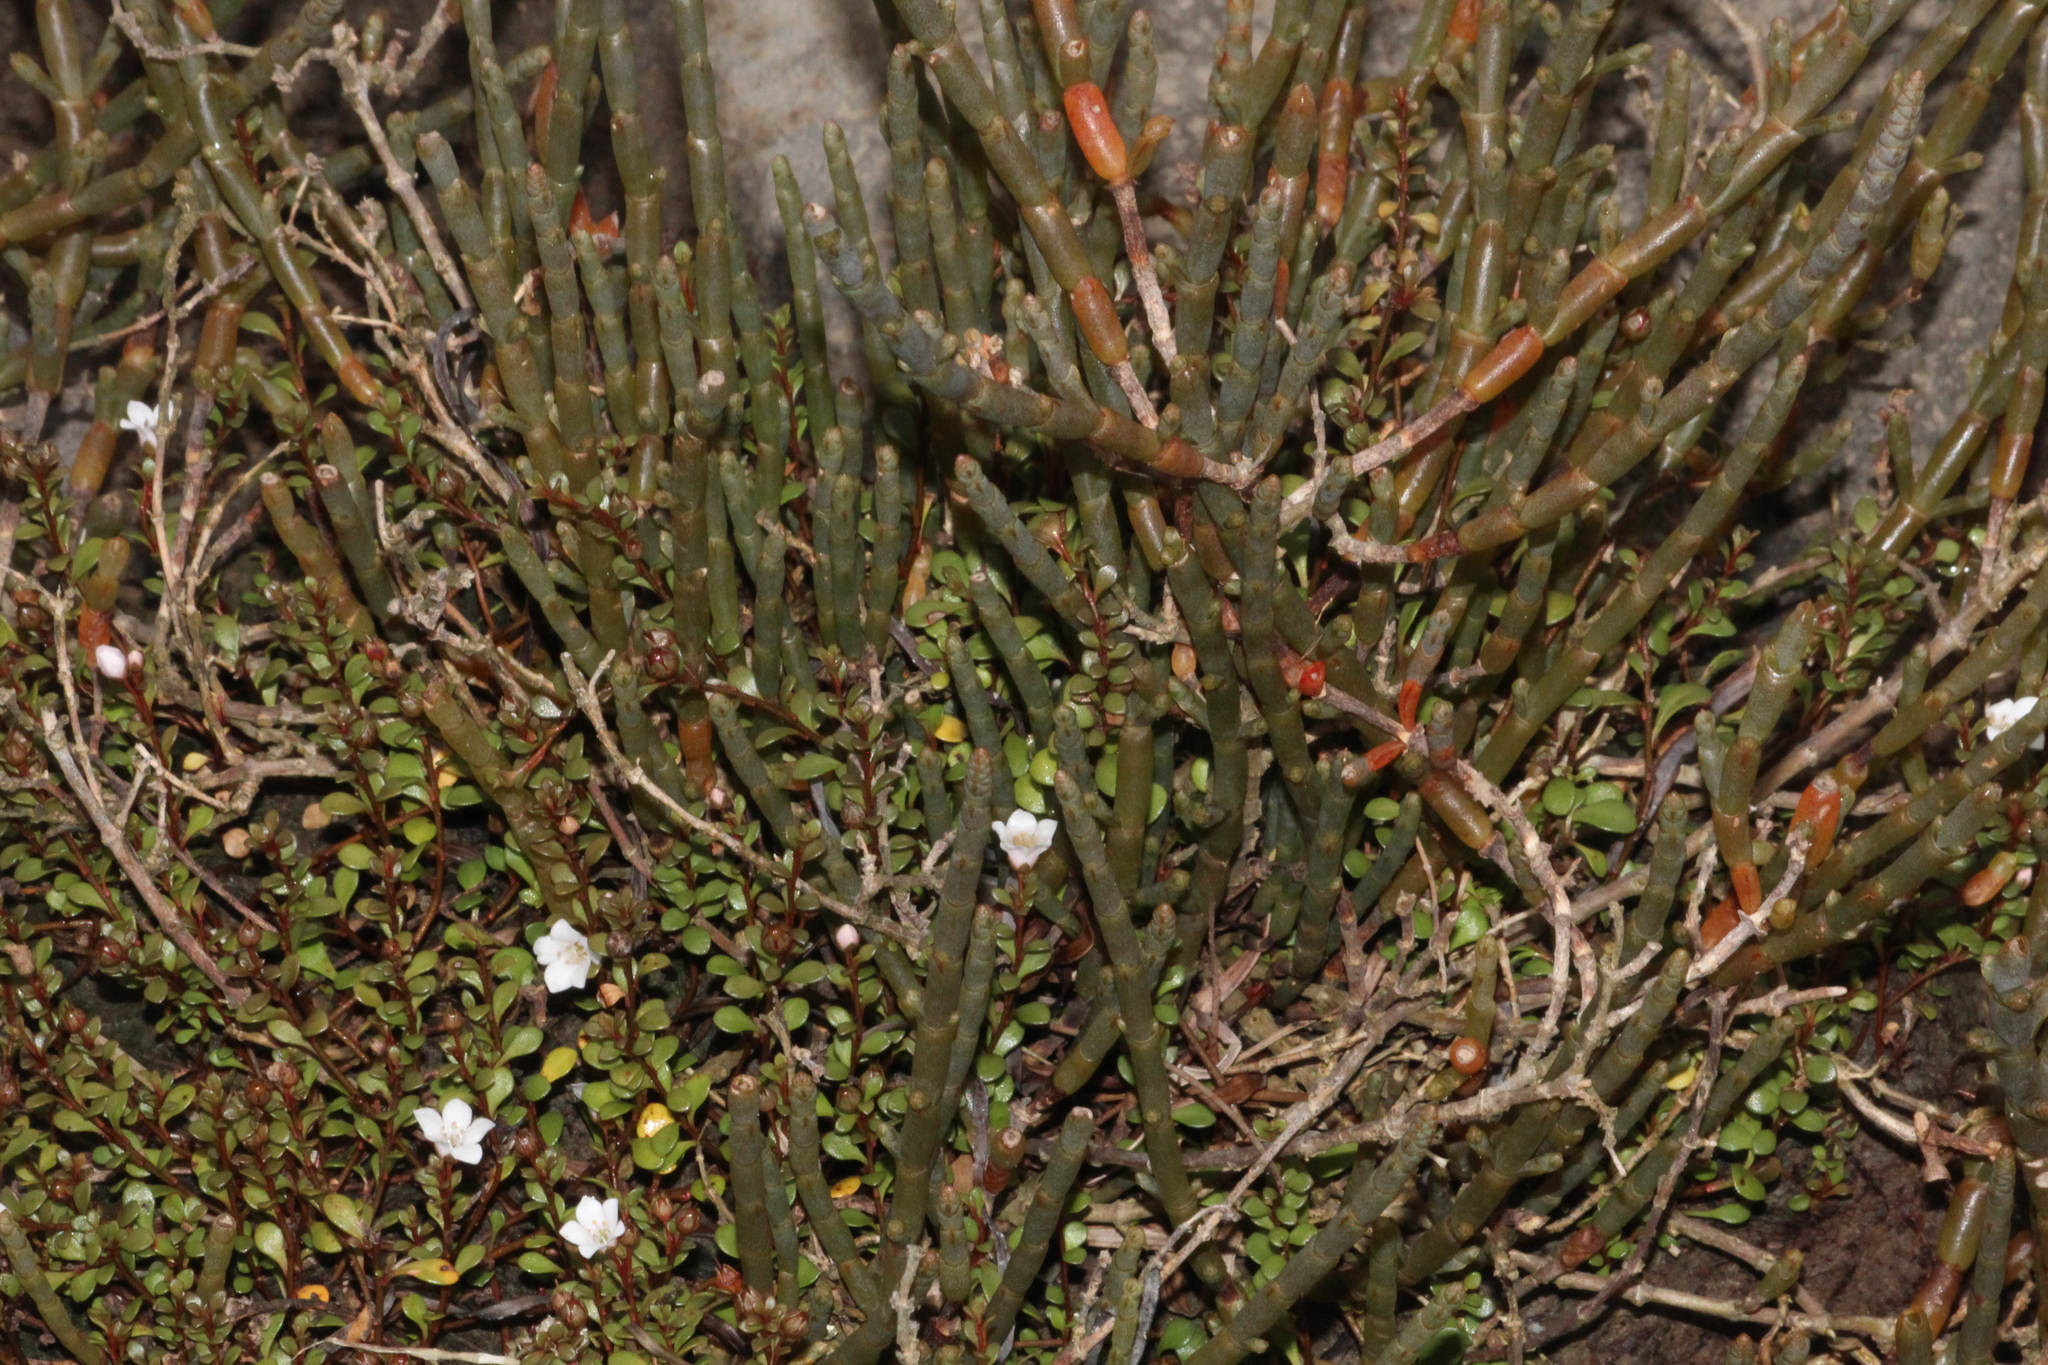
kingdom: Plantae
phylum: Tracheophyta
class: Magnoliopsida
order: Caryophyllales
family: Amaranthaceae
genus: Salicornia
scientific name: Salicornia quinqueflora
